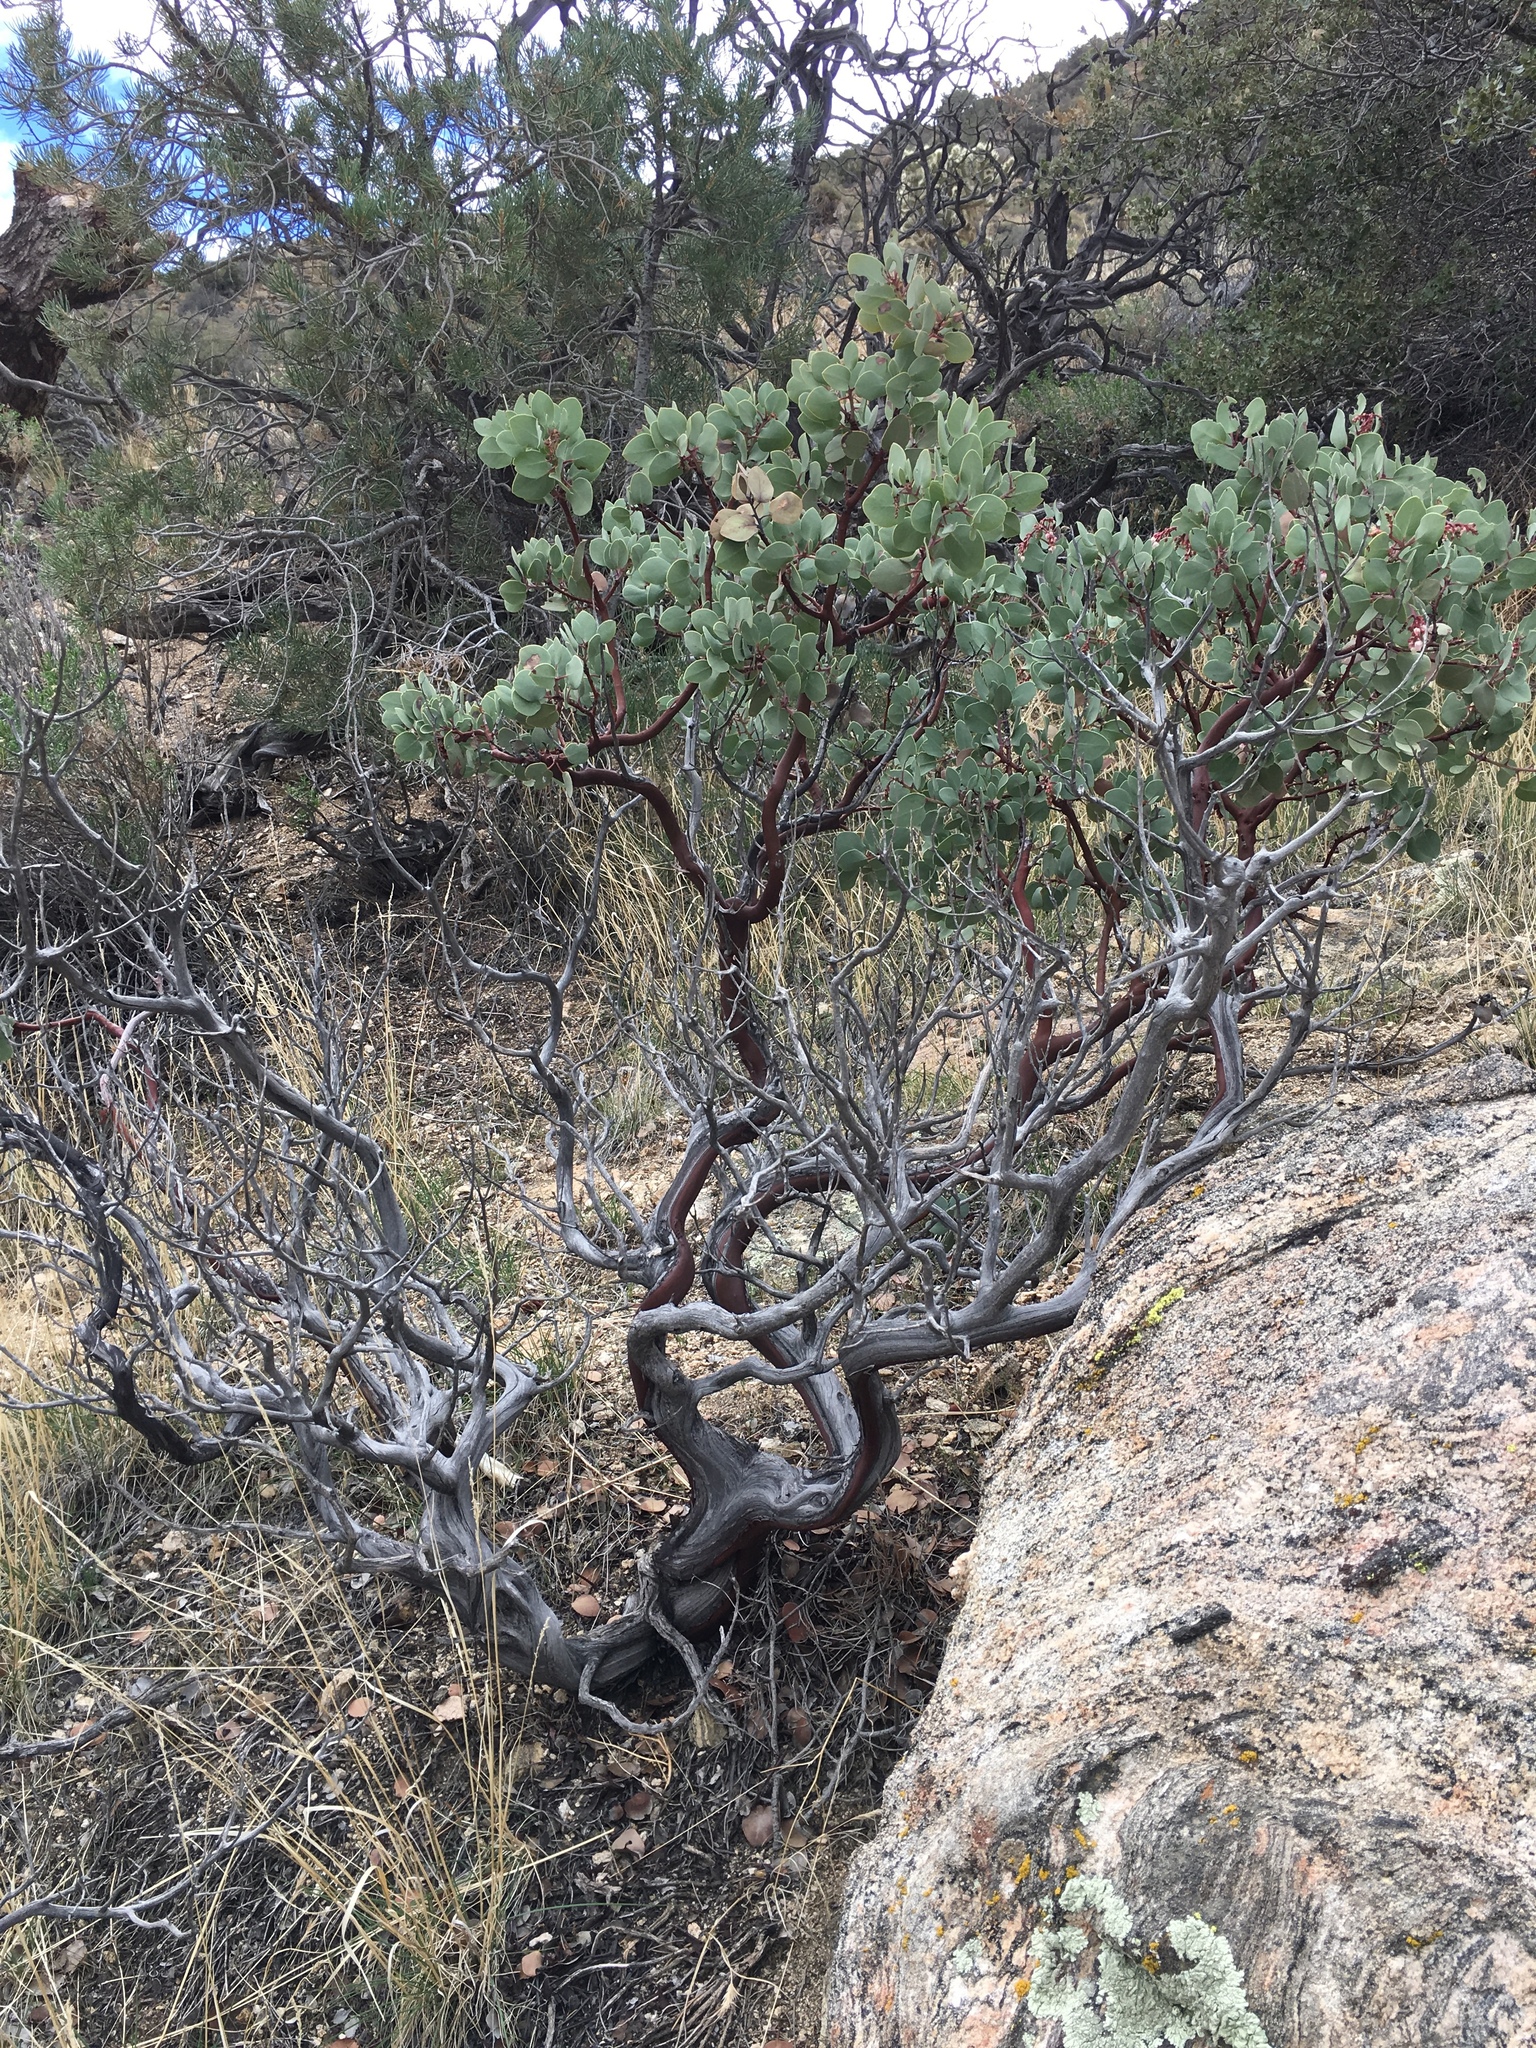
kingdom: Plantae
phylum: Tracheophyta
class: Magnoliopsida
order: Ericales
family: Ericaceae
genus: Arctostaphylos
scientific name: Arctostaphylos glauca
